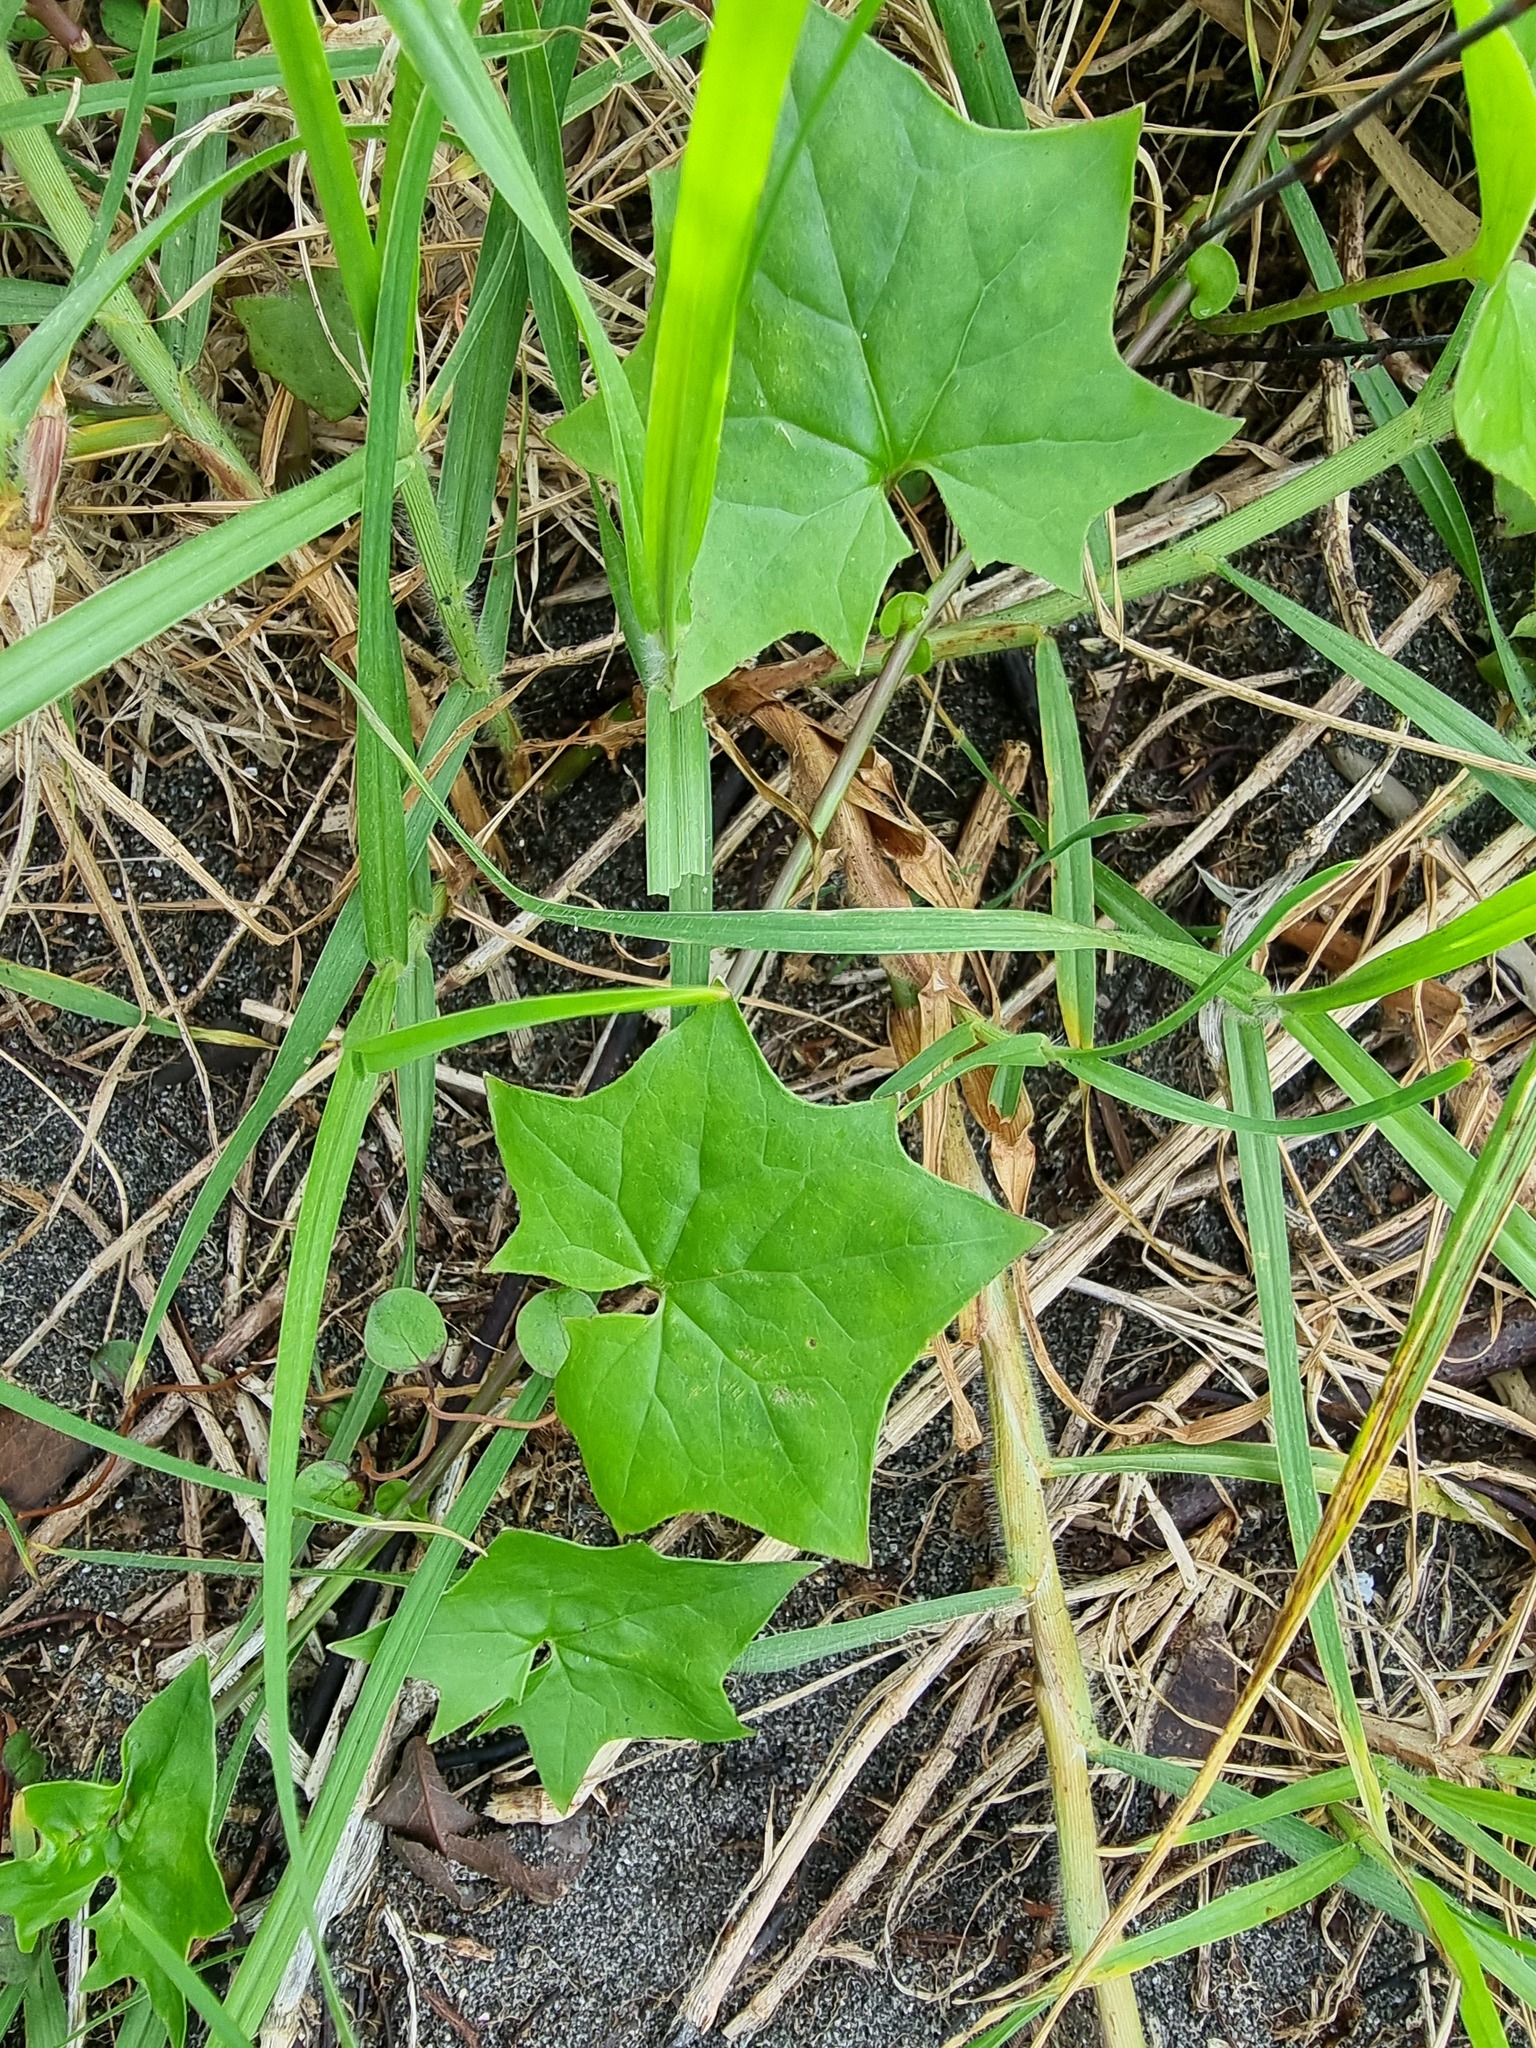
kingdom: Plantae
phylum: Tracheophyta
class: Magnoliopsida
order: Asterales
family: Asteraceae
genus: Delairea
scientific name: Delairea odorata
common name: Cape-ivy
